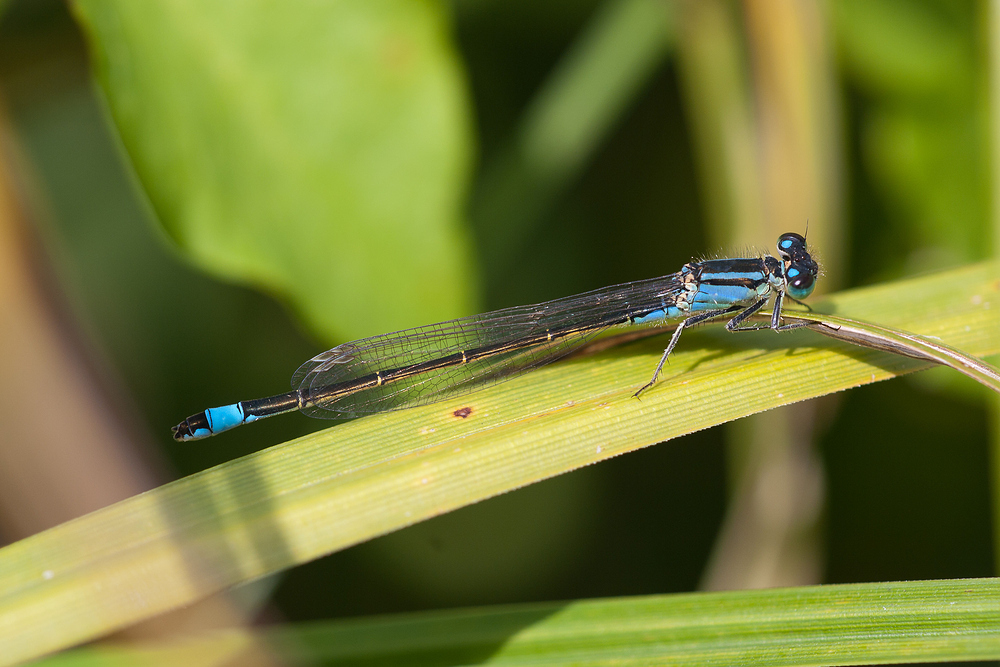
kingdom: Animalia
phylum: Arthropoda
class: Insecta
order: Odonata
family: Coenagrionidae
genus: Ischnura
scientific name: Ischnura elegans
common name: Blue-tailed damselfly
